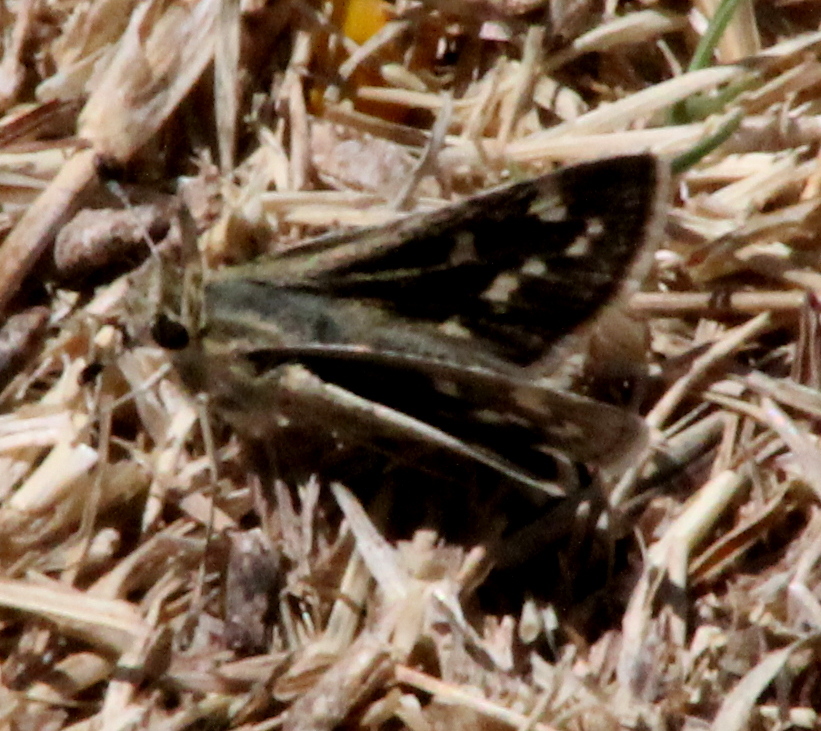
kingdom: Animalia
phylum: Arthropoda
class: Insecta
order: Lepidoptera
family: Hesperiidae
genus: Yvretta
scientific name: Yvretta carus
